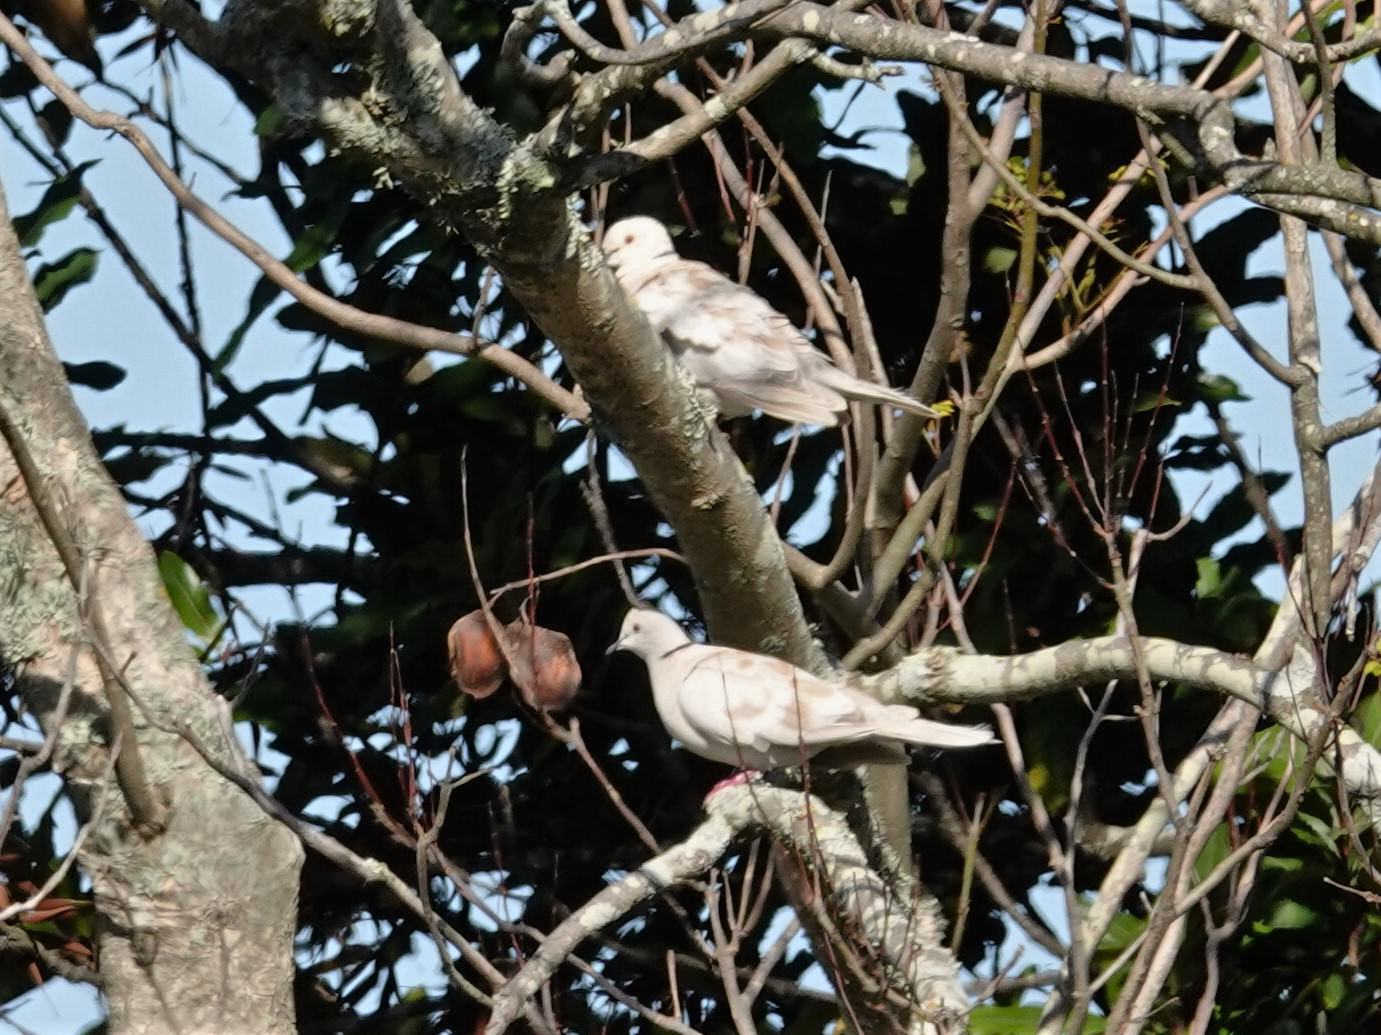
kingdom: Animalia
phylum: Chordata
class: Aves
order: Columbiformes
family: Columbidae
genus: Streptopelia
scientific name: Streptopelia roseogrisea
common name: African collared dove
